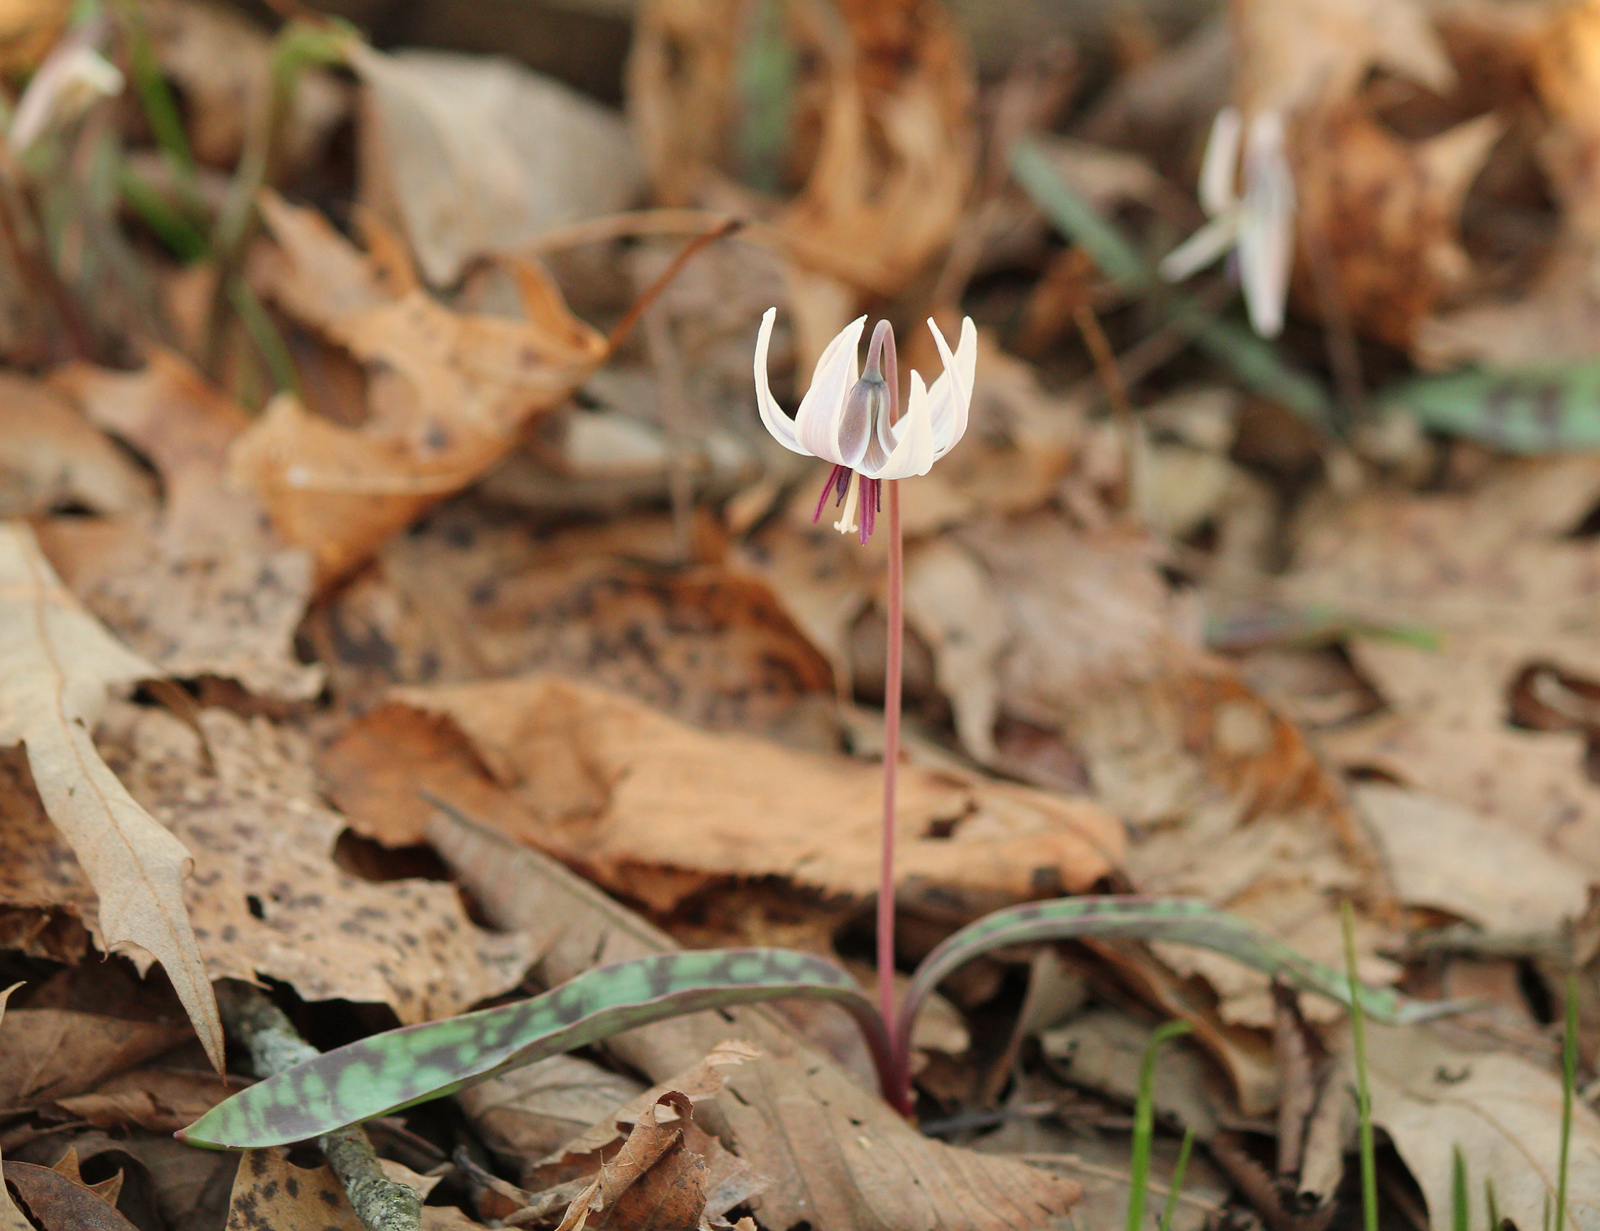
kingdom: Plantae
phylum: Tracheophyta
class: Liliopsida
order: Liliales
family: Liliaceae
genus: Erythronium
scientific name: Erythronium albidum
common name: White trout-lily
